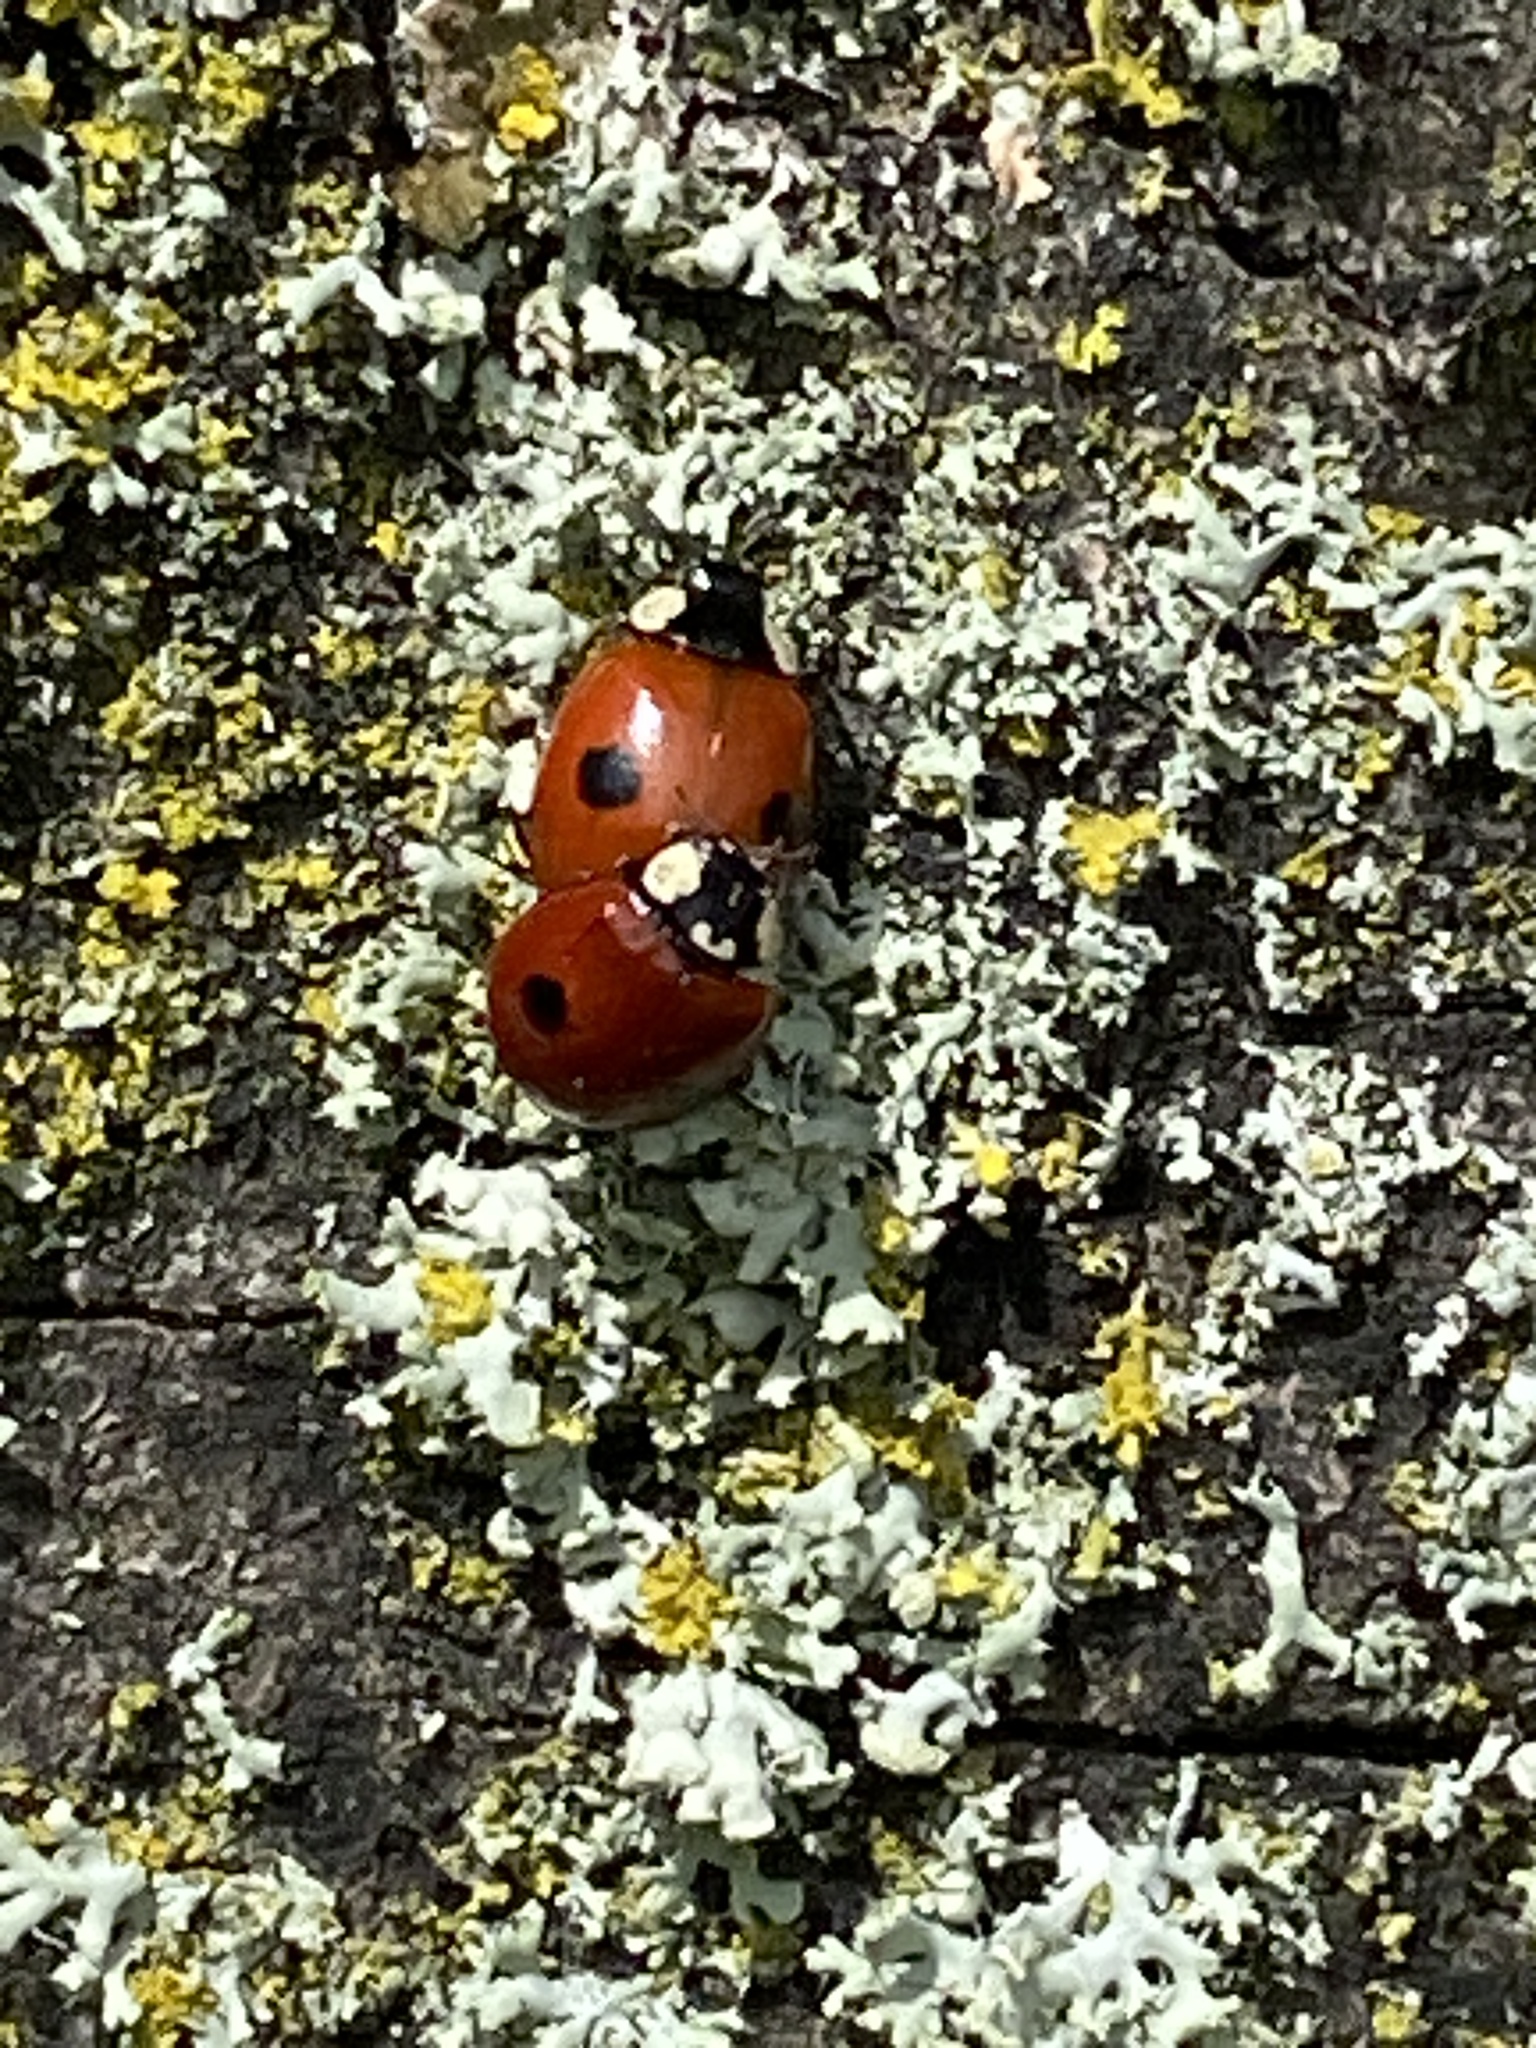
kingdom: Animalia
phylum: Arthropoda
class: Insecta
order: Coleoptera
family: Coccinellidae
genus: Adalia
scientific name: Adalia bipunctata
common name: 2-spot ladybird
